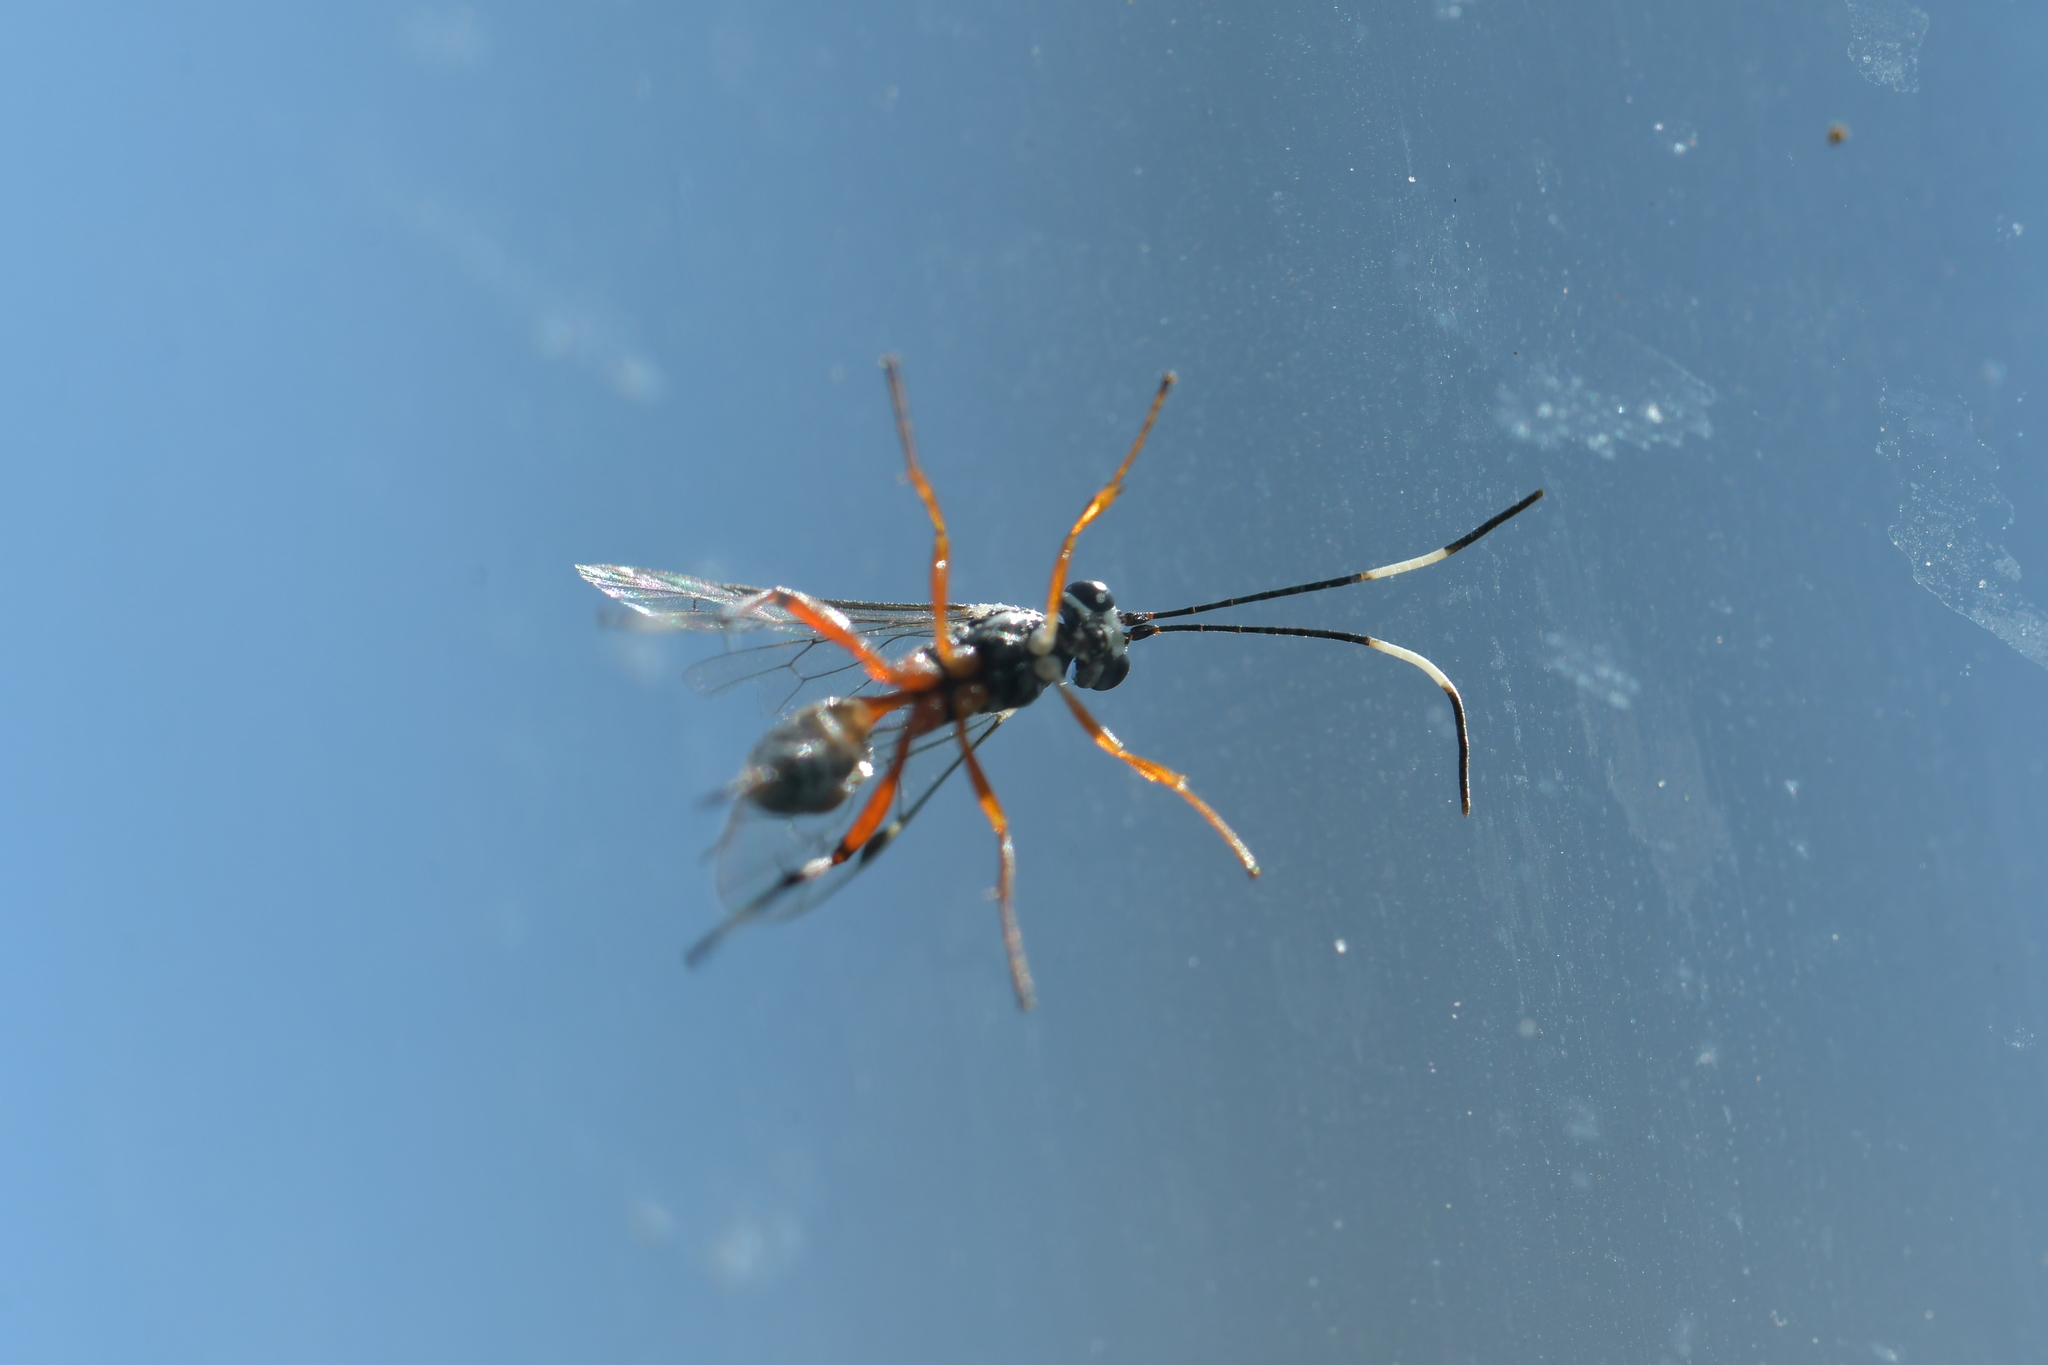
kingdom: Animalia
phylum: Arthropoda
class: Insecta
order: Hymenoptera
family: Ichneumonidae
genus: Glabridorsum
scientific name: Glabridorsum stokesii
